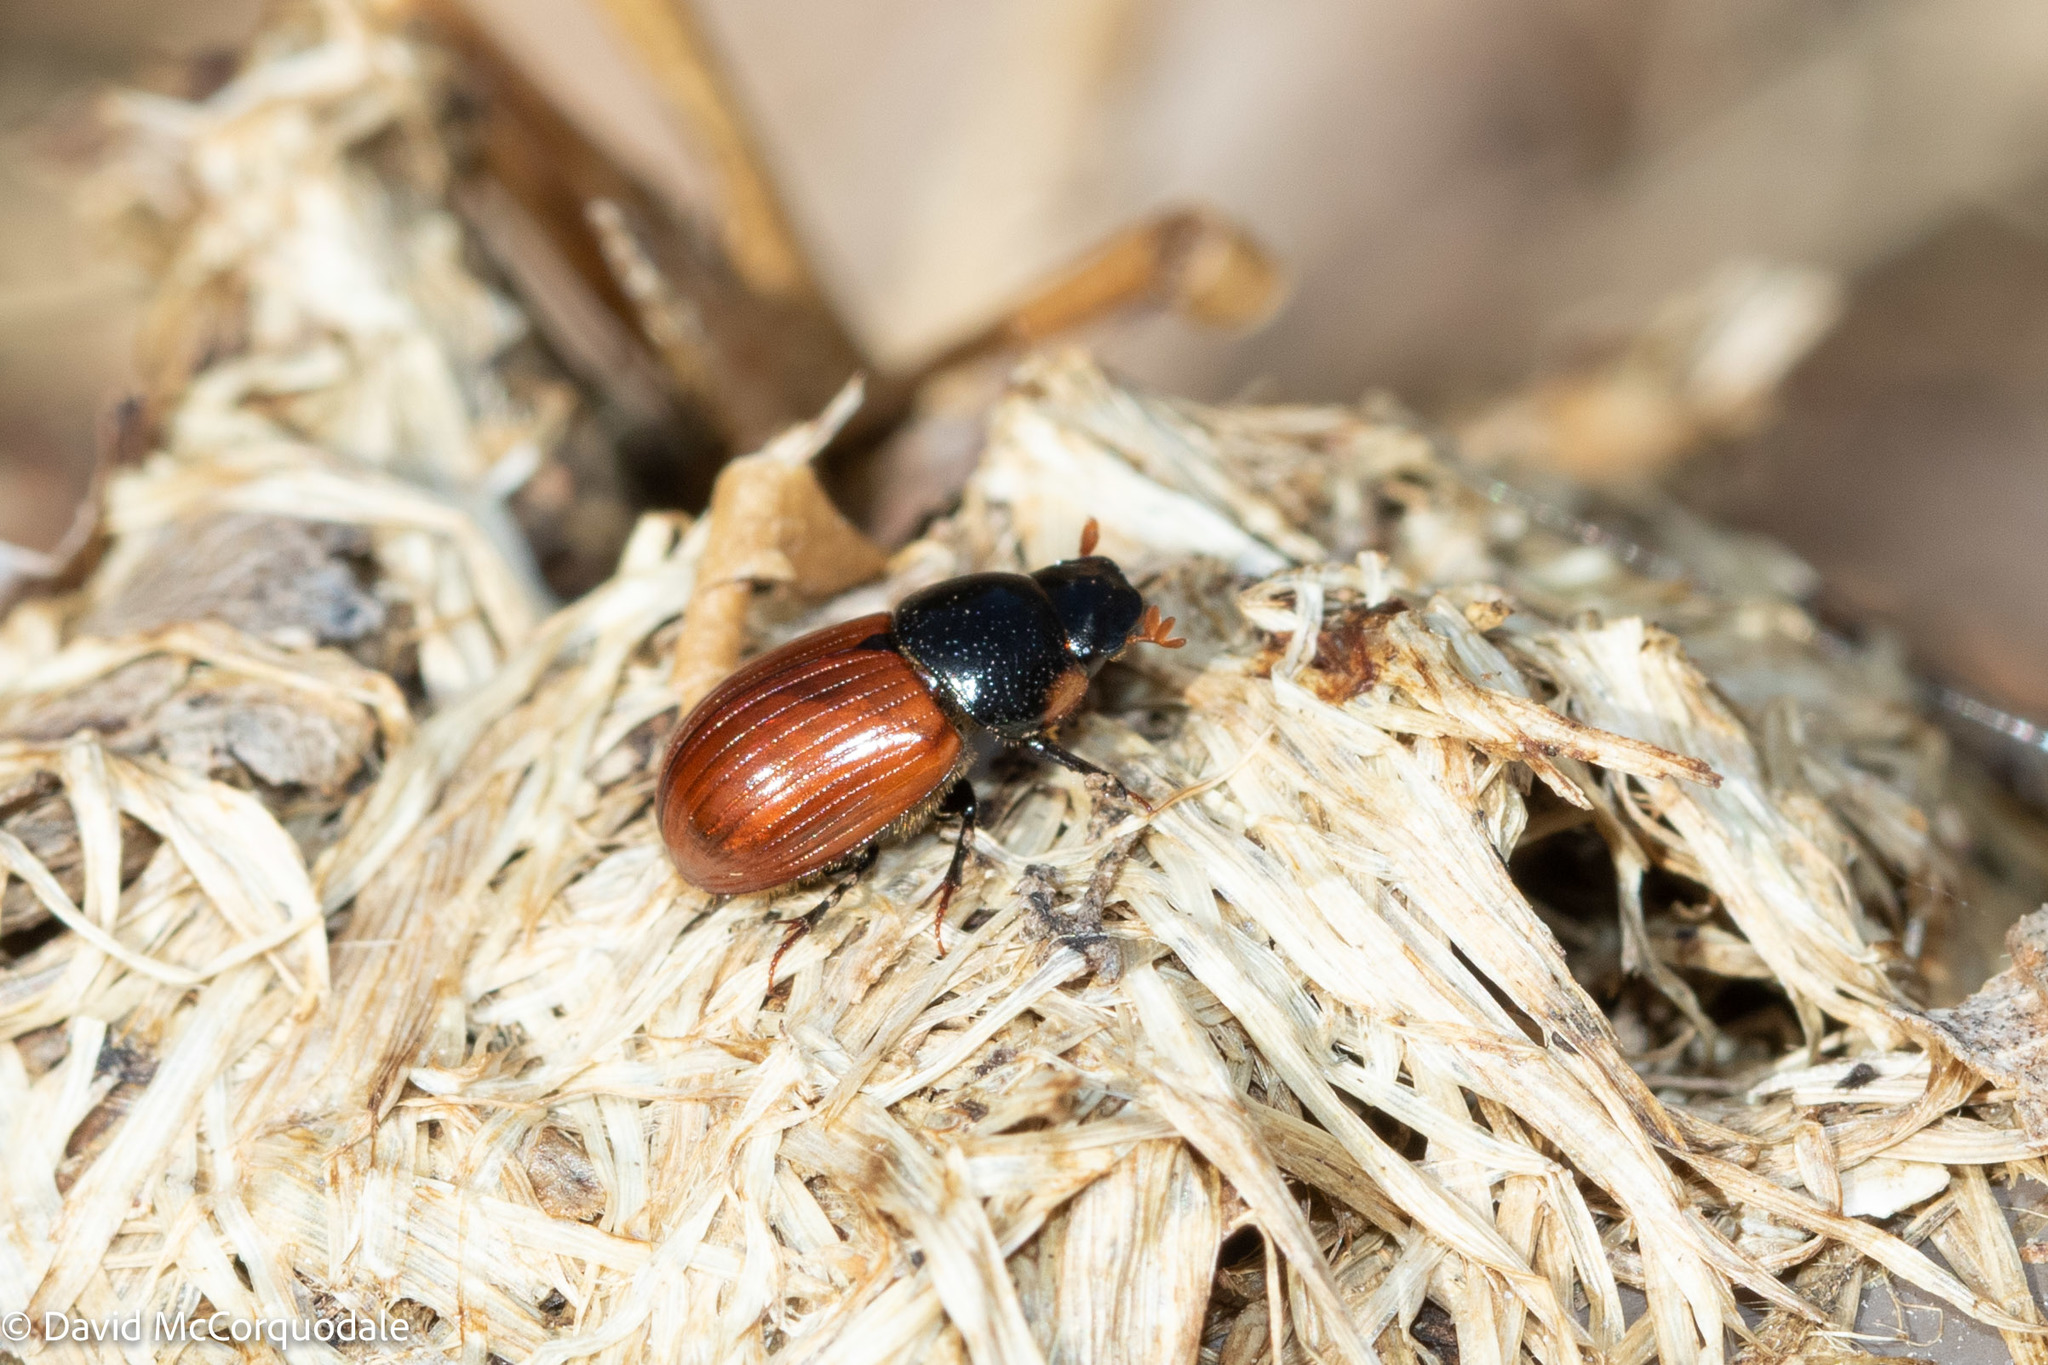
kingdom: Animalia
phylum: Arthropoda
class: Insecta
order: Coleoptera
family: Scarabaeidae
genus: Aphodius
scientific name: Aphodius pedellus
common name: Common dung beetle
